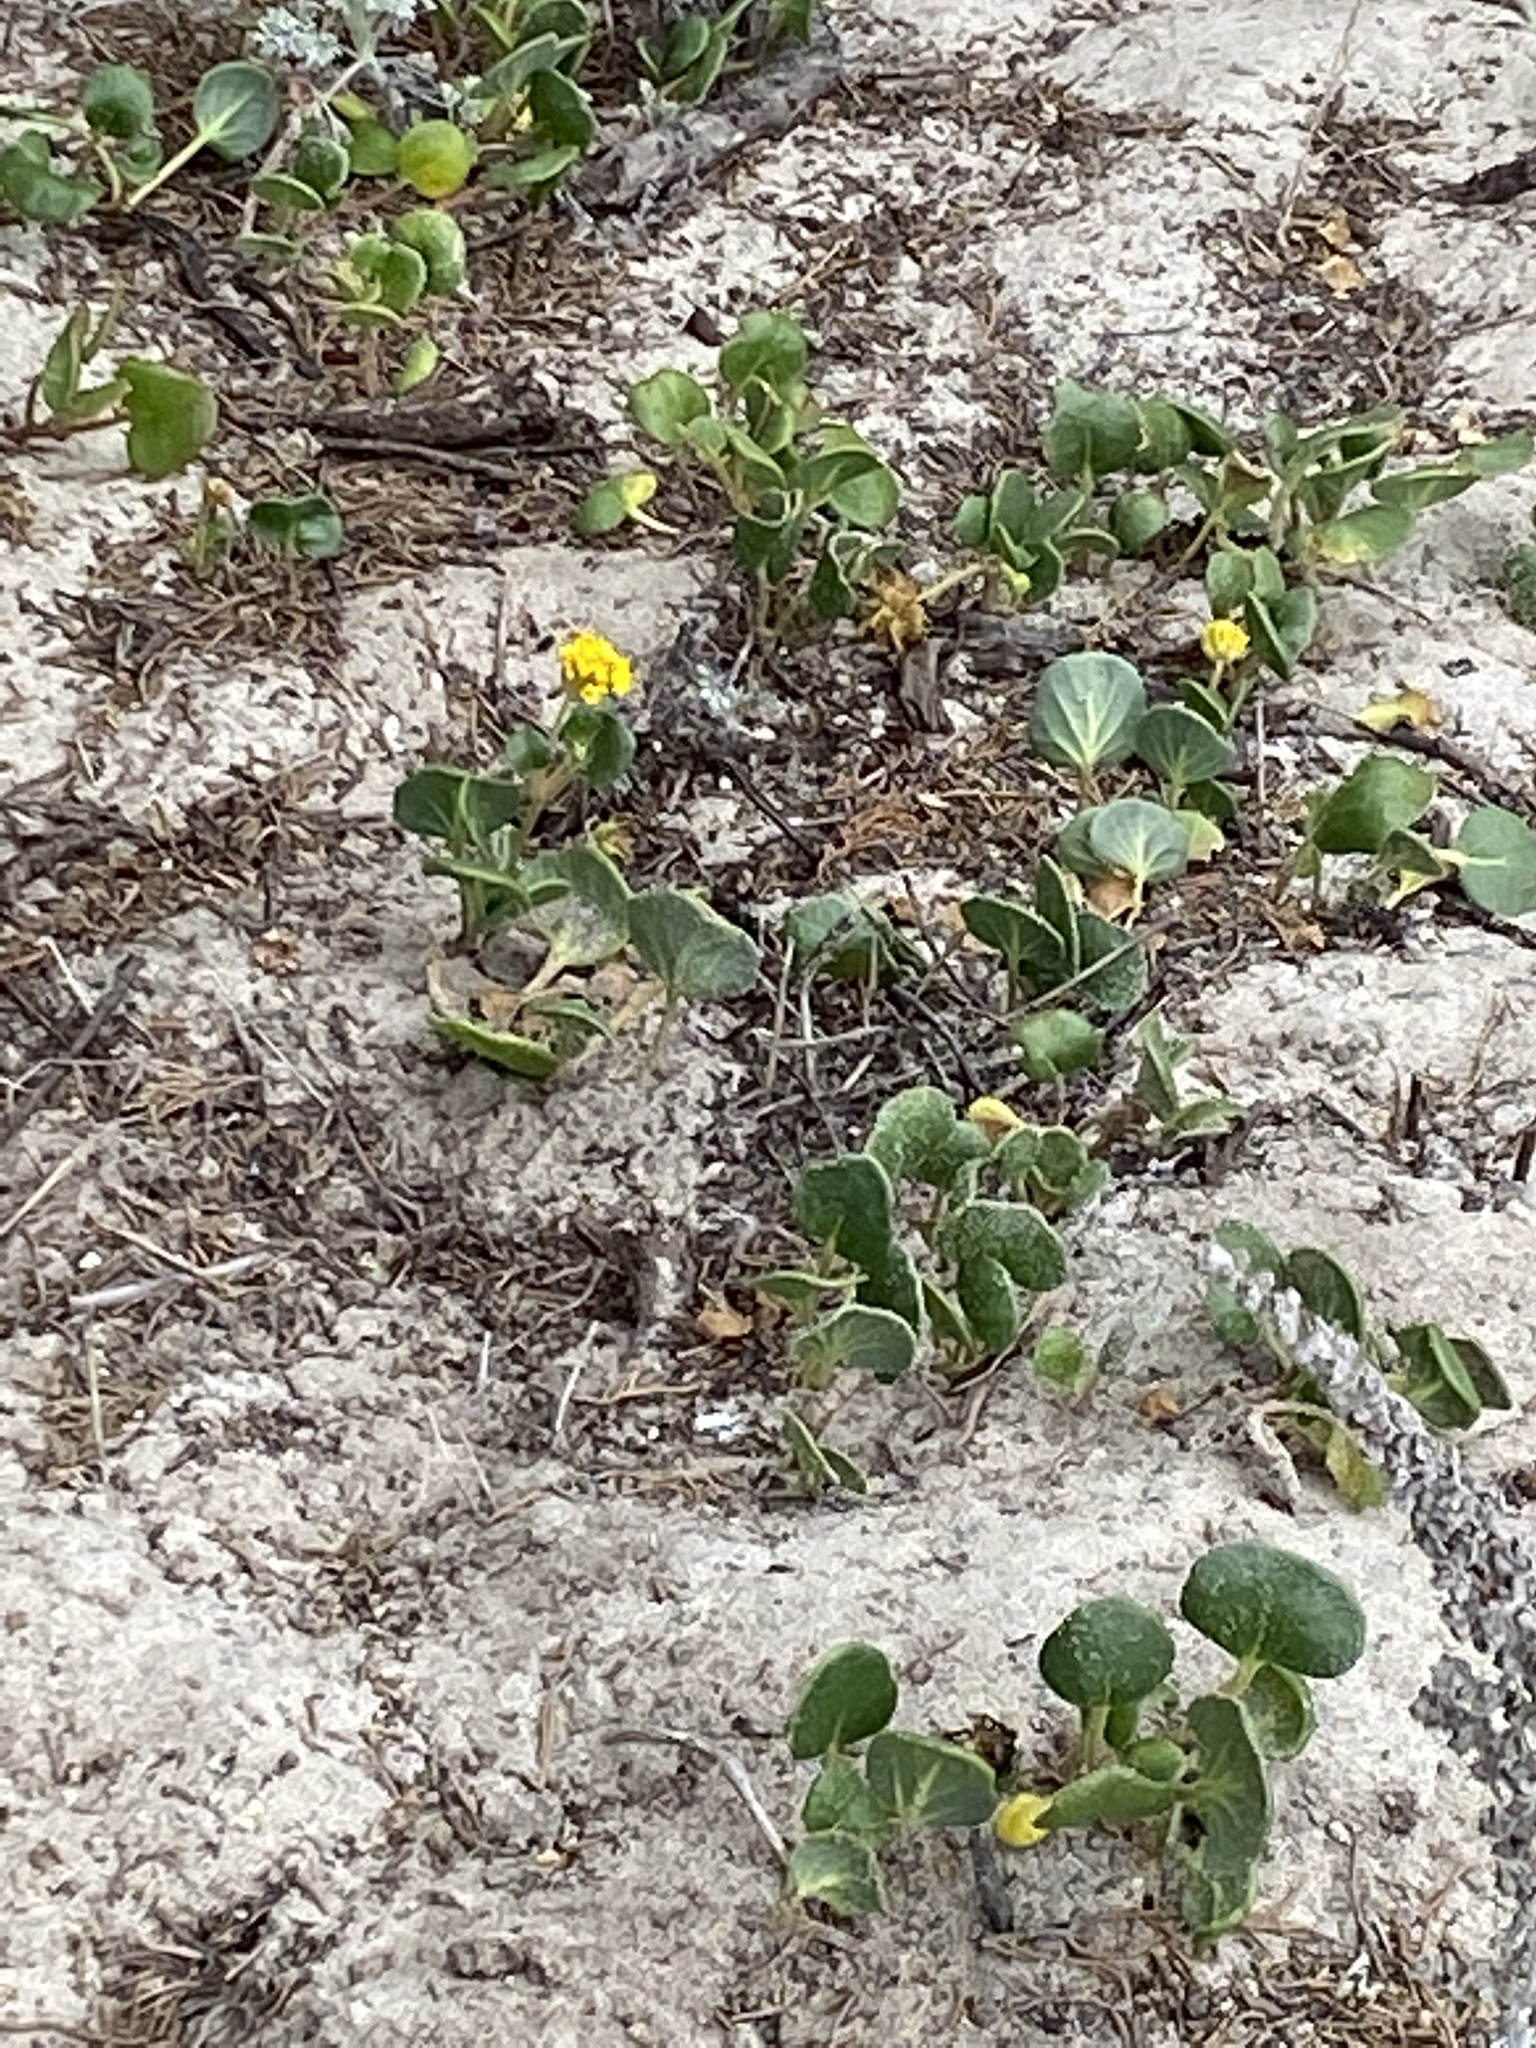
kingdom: Plantae
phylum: Tracheophyta
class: Magnoliopsida
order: Caryophyllales
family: Nyctaginaceae
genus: Abronia
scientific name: Abronia latifolia
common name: Yellow sand-verbena
